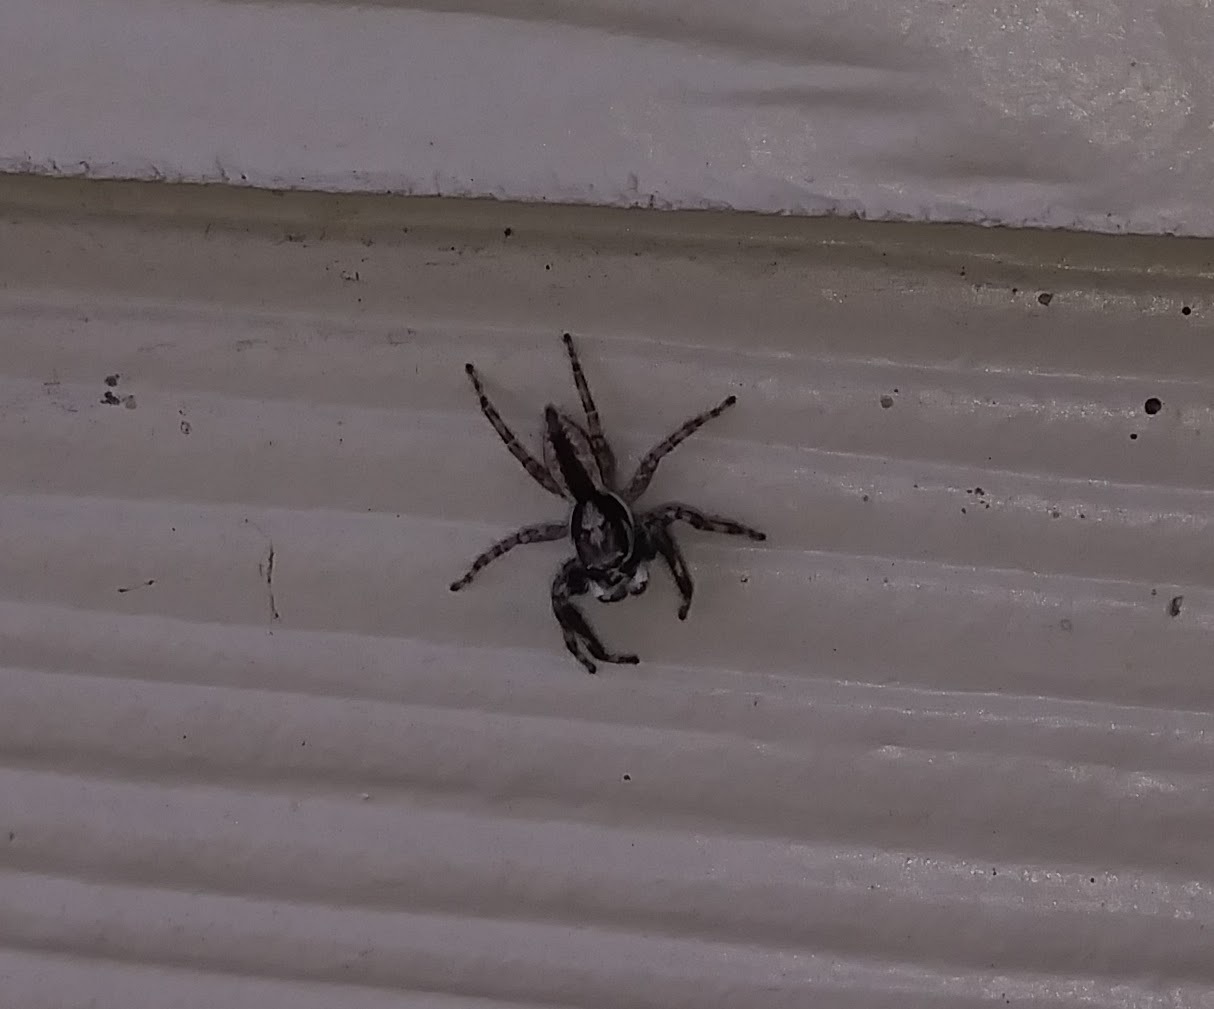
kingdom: Animalia
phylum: Arthropoda
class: Arachnida
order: Araneae
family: Salticidae
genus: Menemerus
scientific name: Menemerus bivittatus
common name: Gray wall jumper
